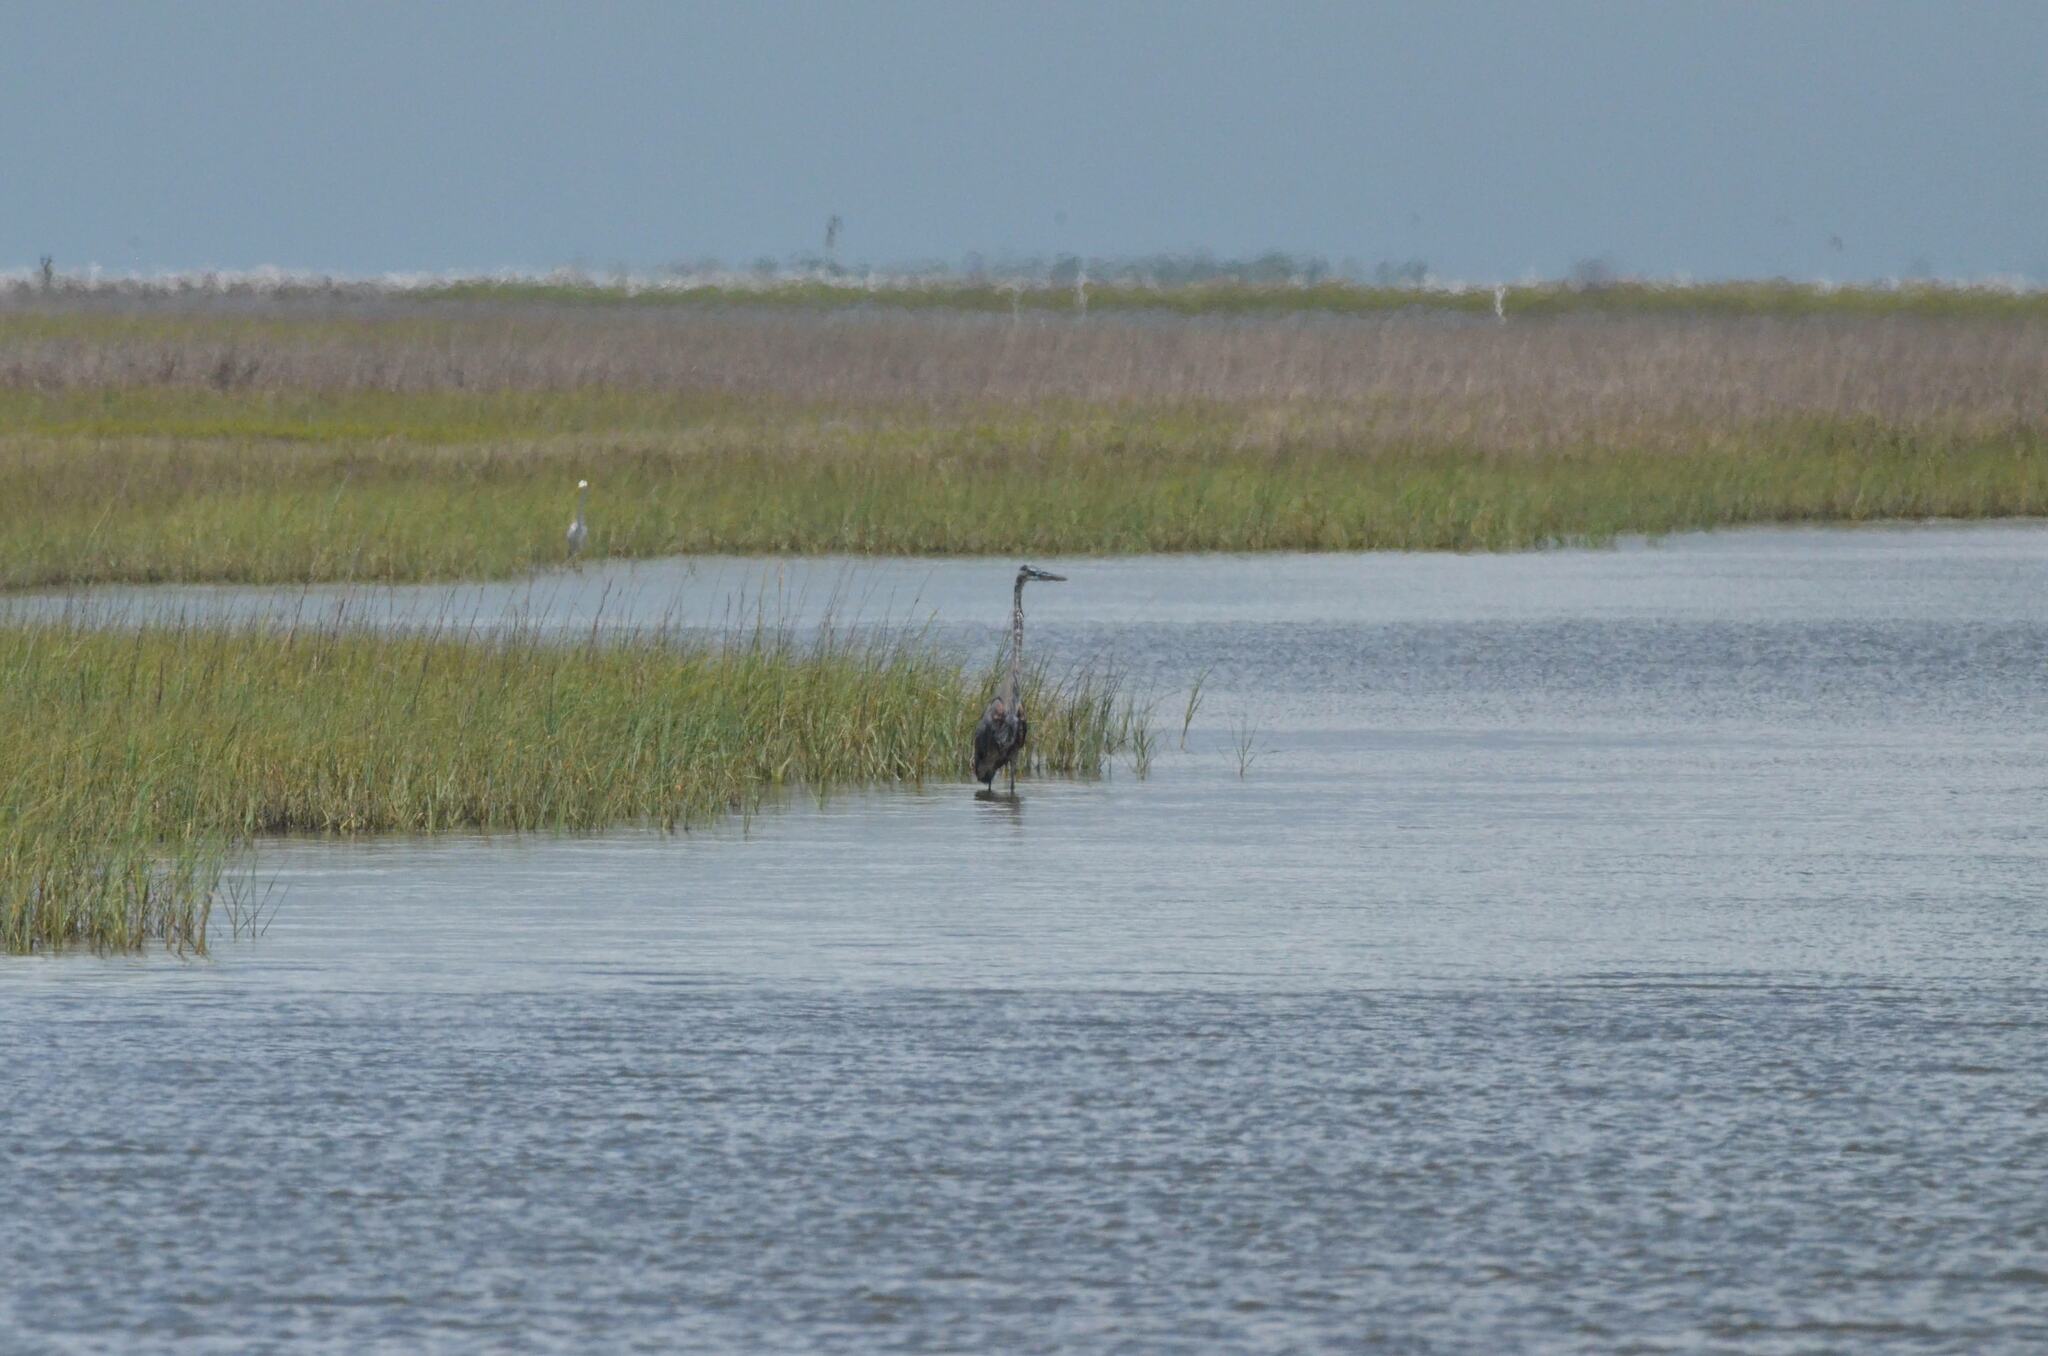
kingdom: Animalia
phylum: Chordata
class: Aves
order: Pelecaniformes
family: Ardeidae
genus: Ardea
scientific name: Ardea herodias
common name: Great blue heron
